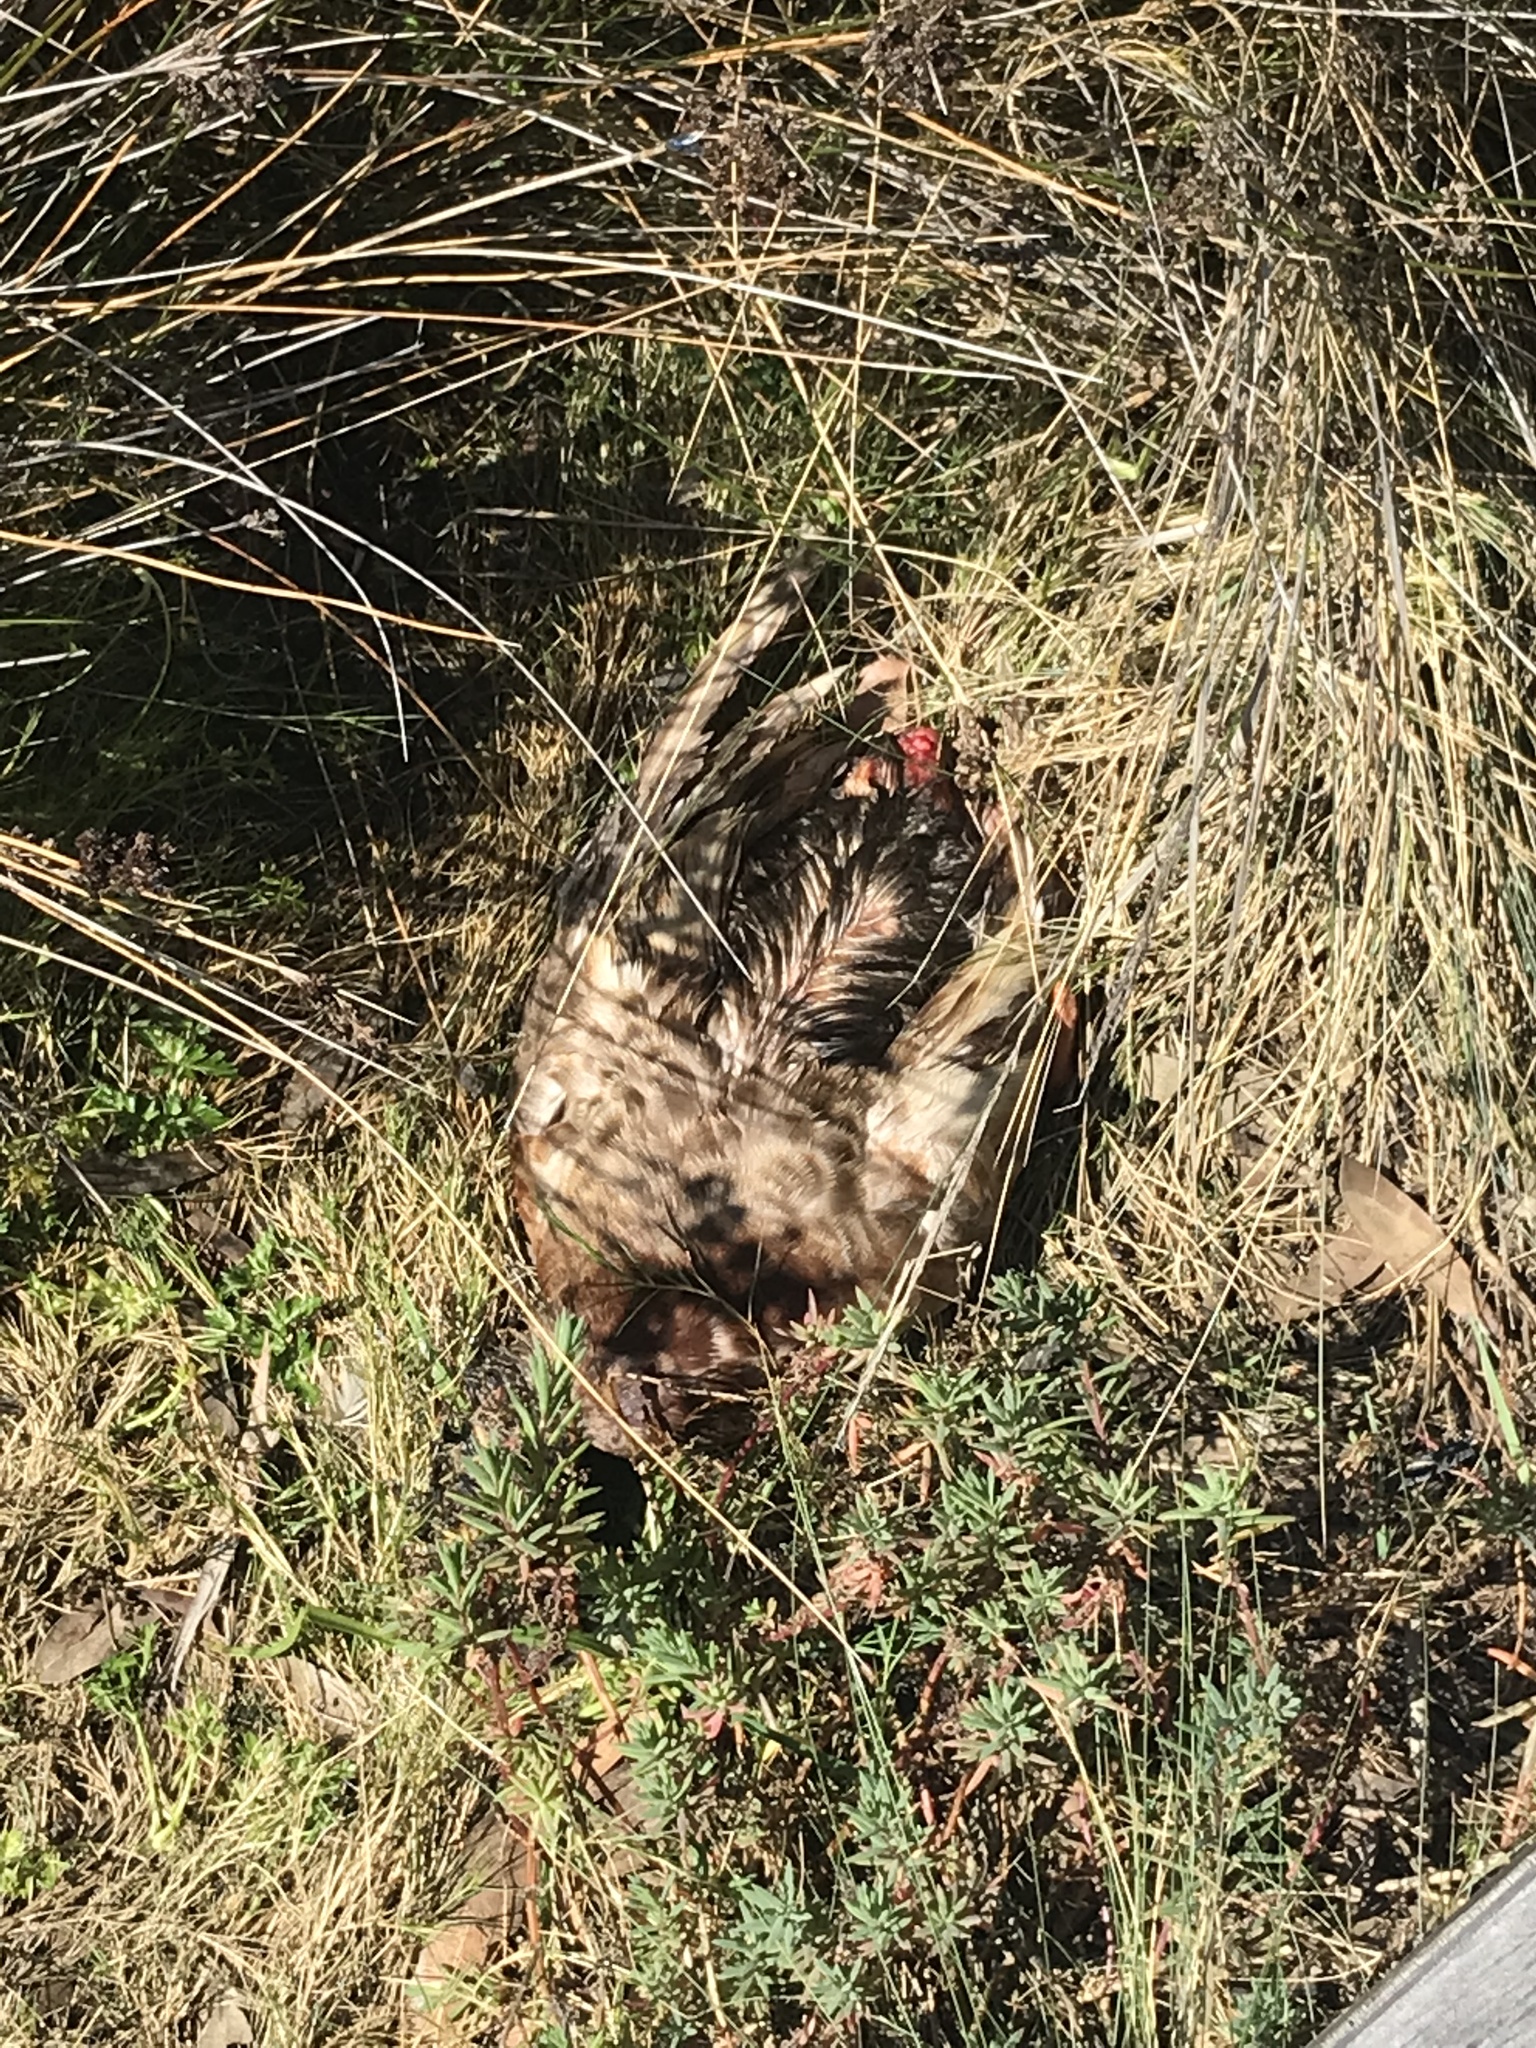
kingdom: Animalia
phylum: Chordata
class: Aves
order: Anseriformes
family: Anatidae
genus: Anas
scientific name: Anas platyrhynchos
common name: Mallard
